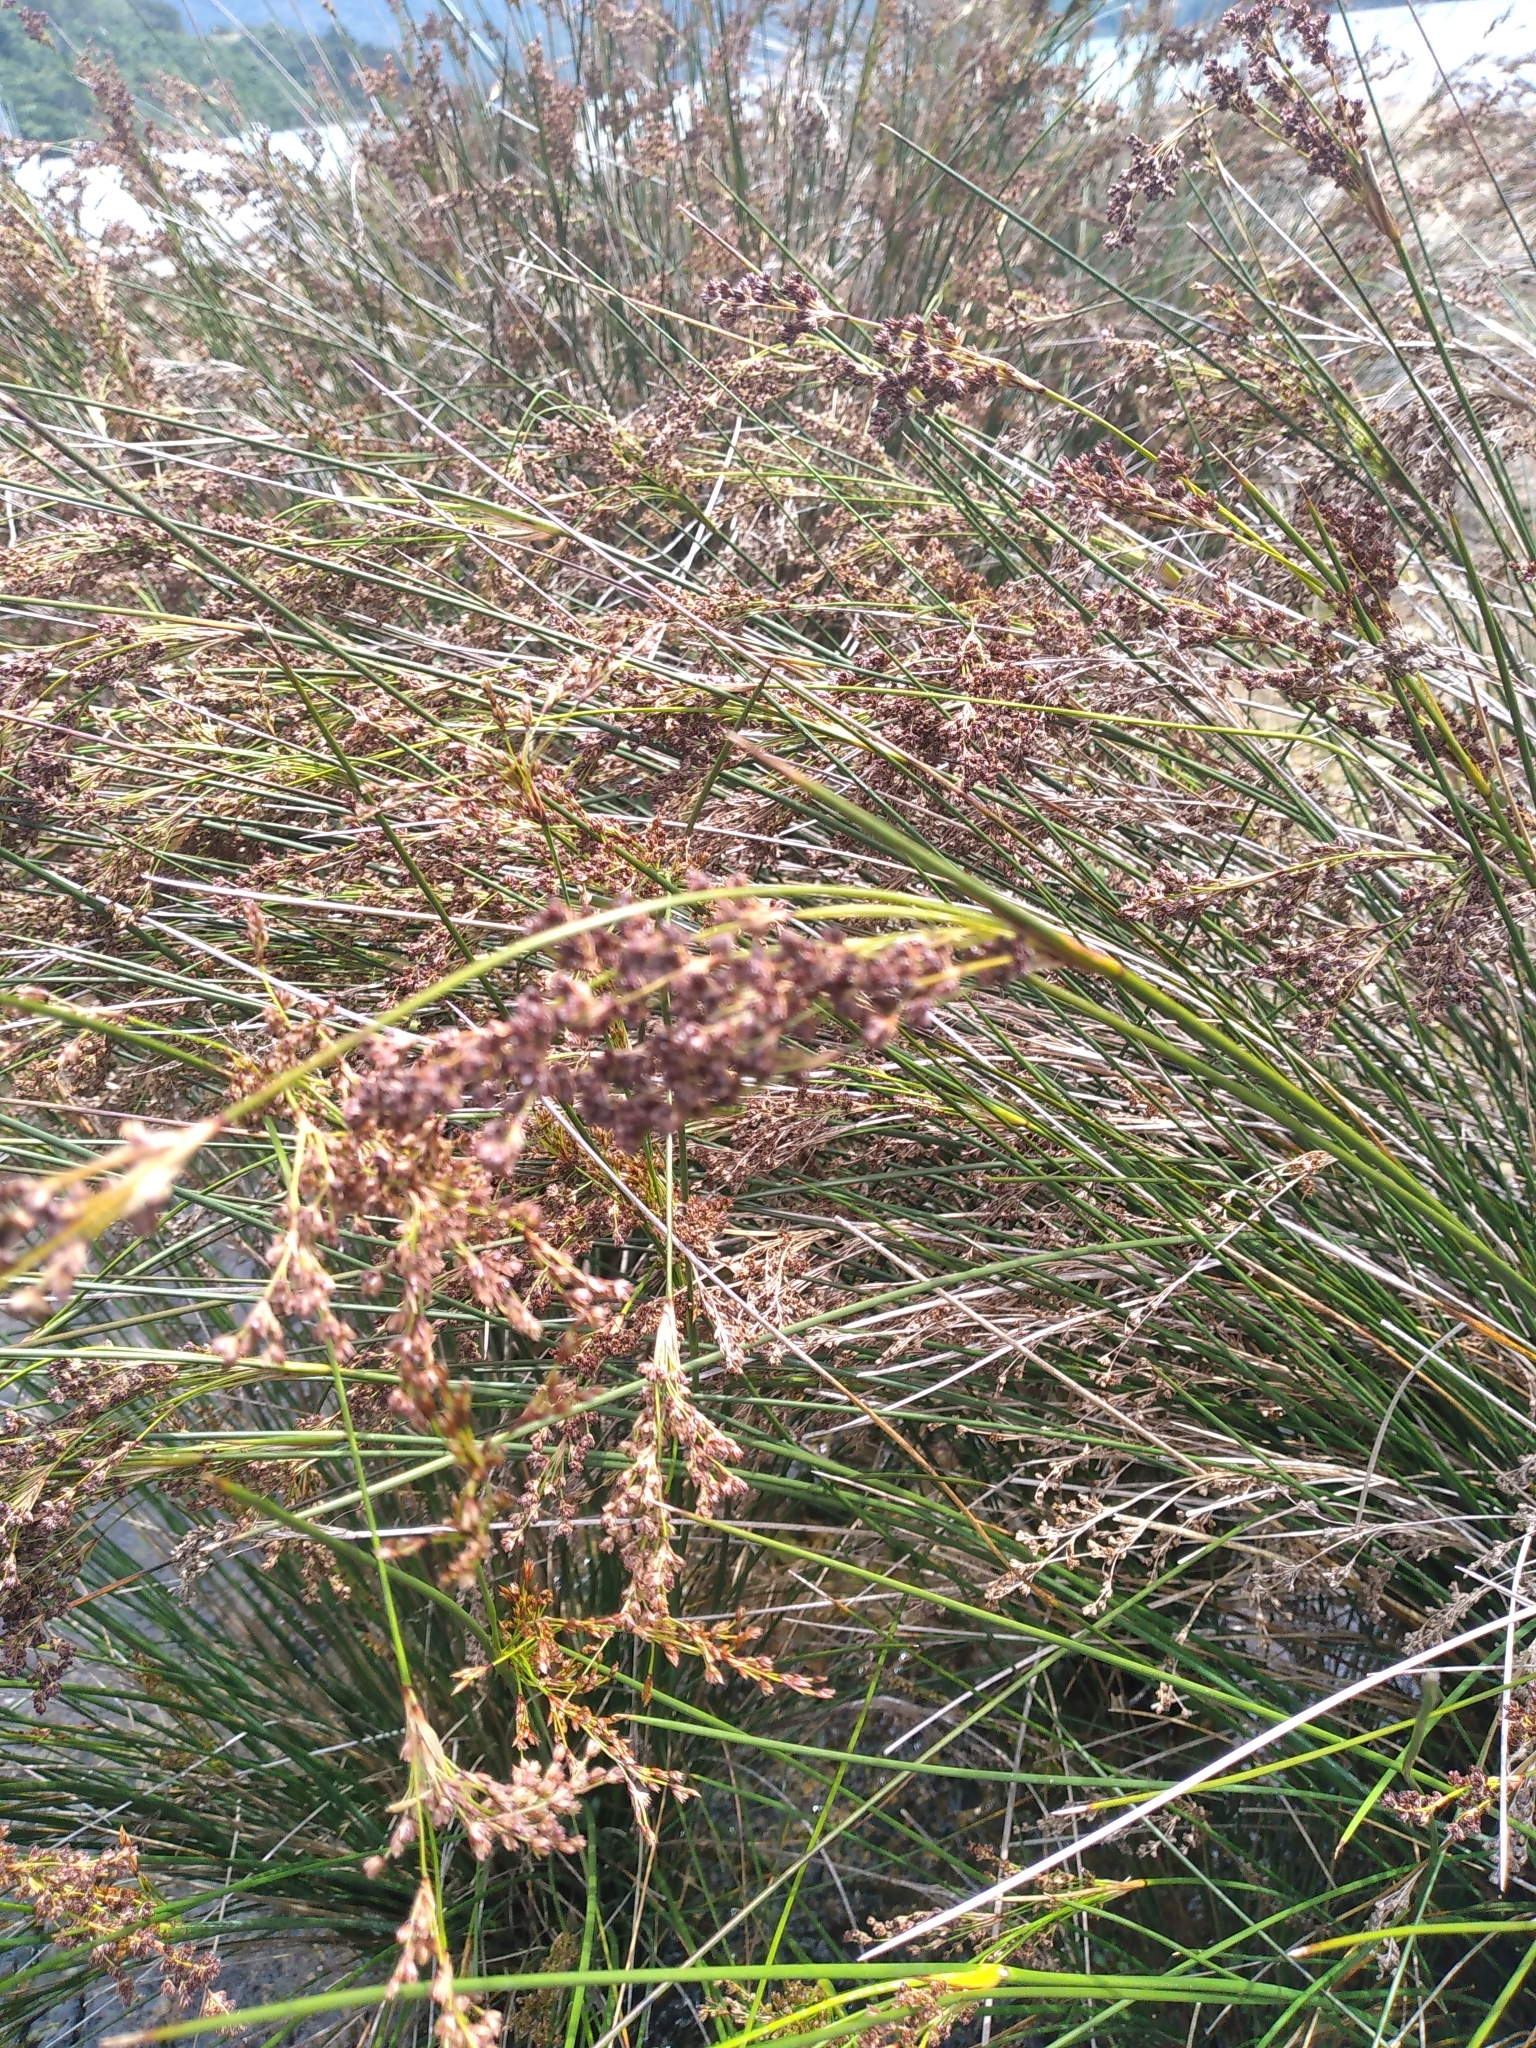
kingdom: Plantae
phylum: Tracheophyta
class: Liliopsida
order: Poales
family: Juncaceae
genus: Juncus
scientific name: Juncus kraussii
